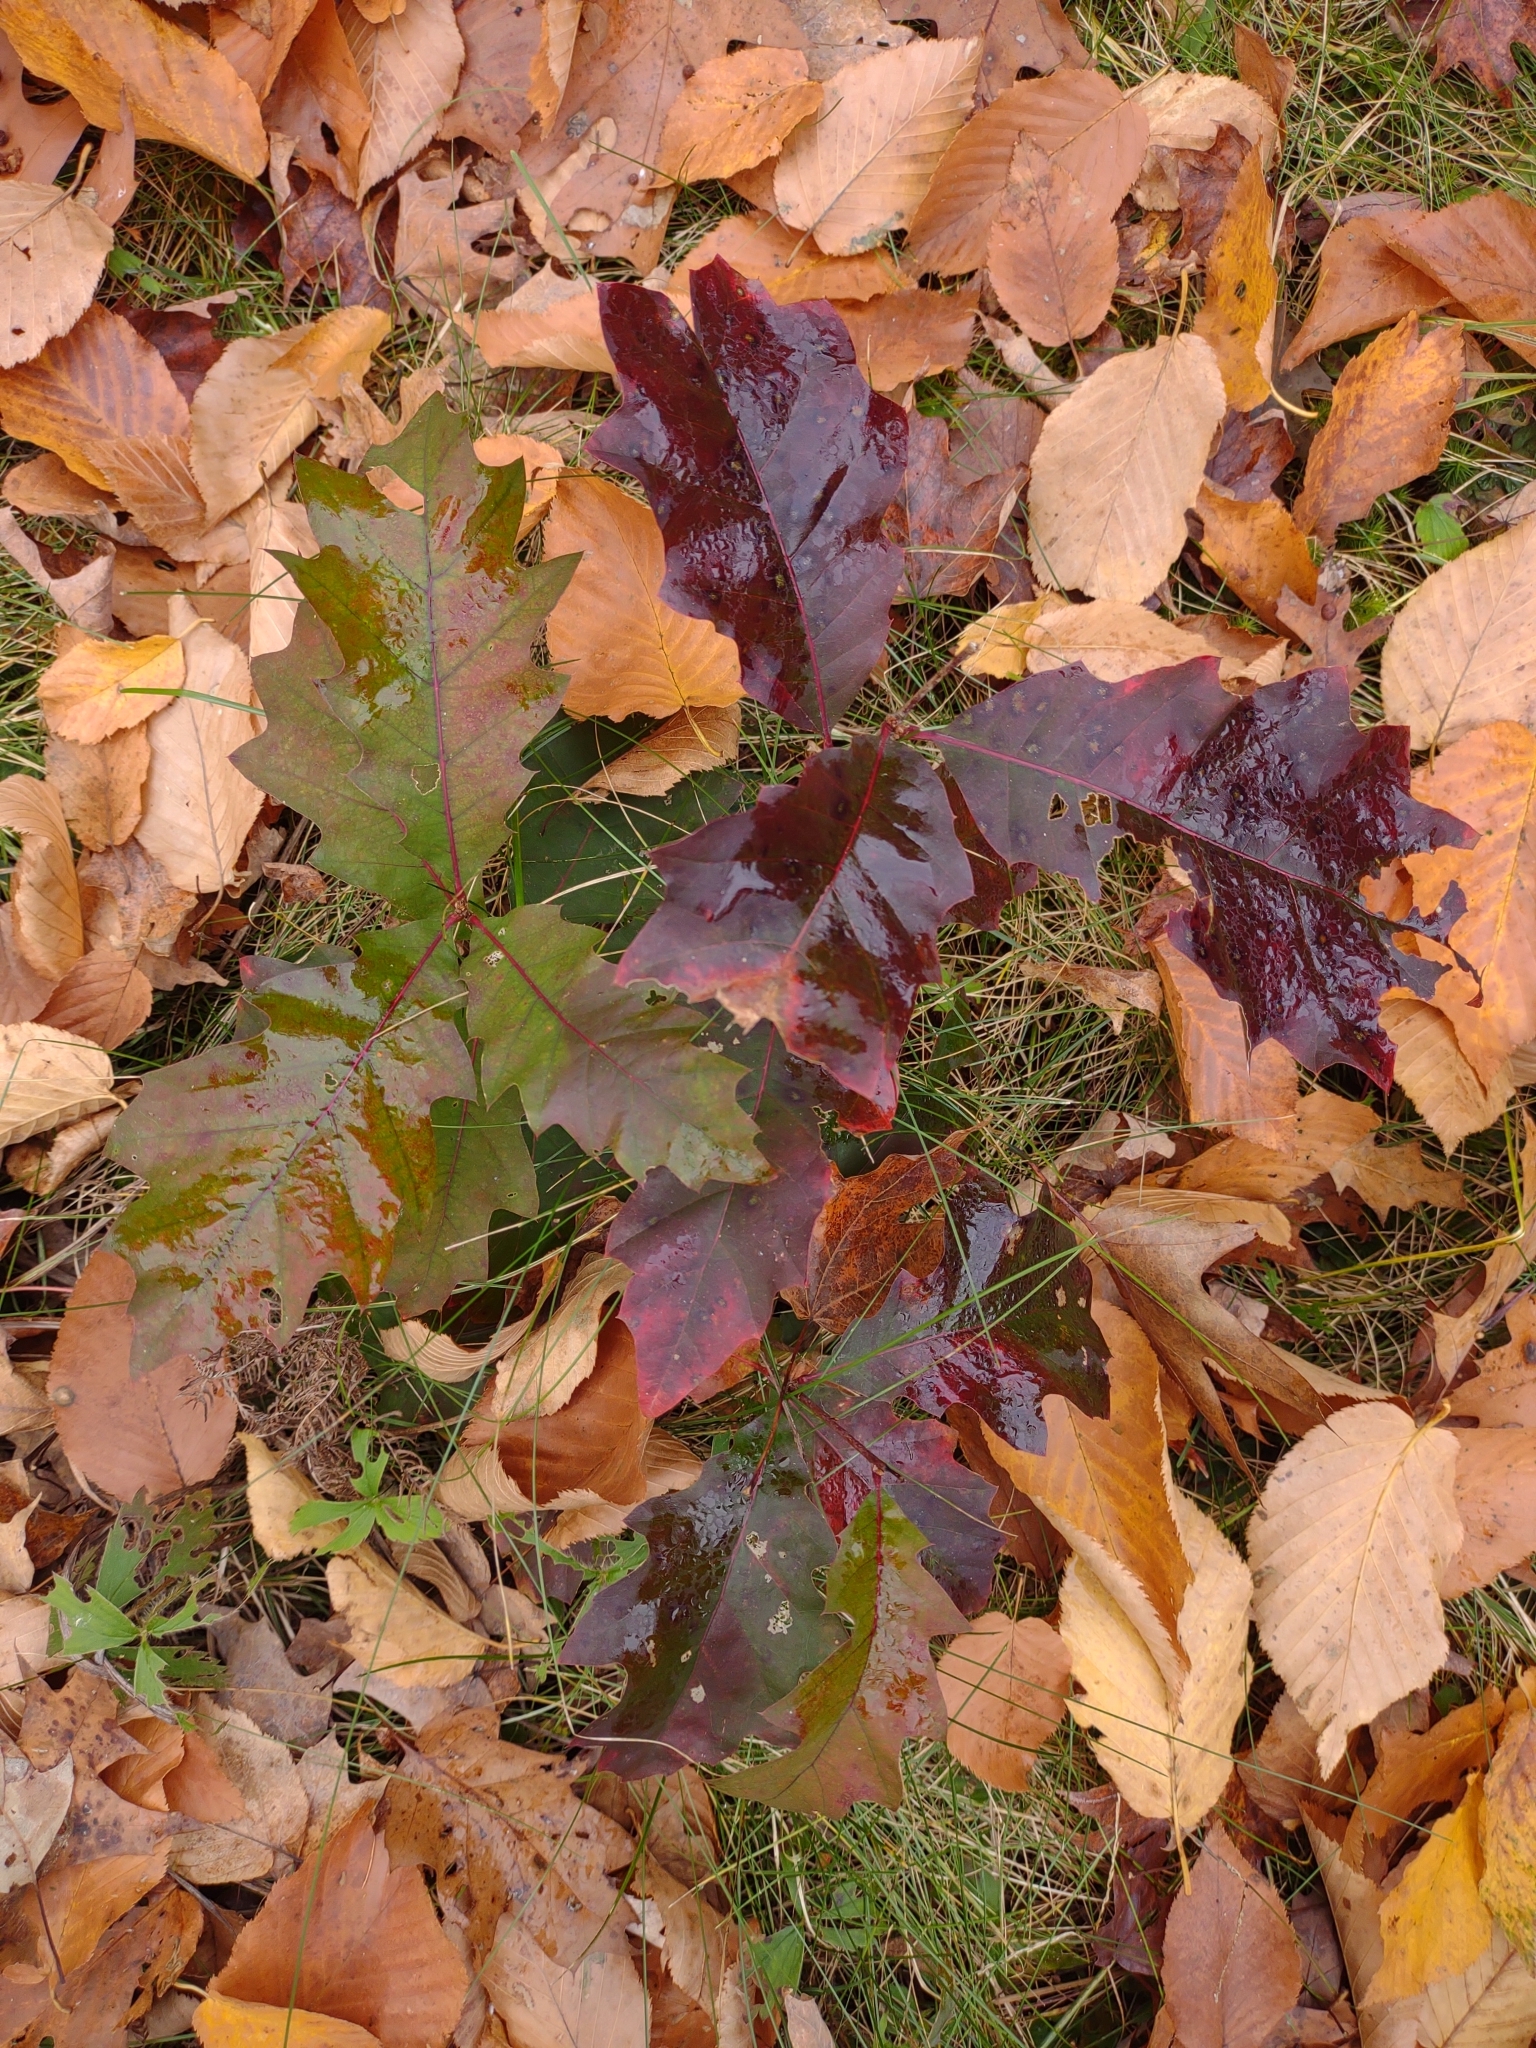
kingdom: Plantae
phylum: Tracheophyta
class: Magnoliopsida
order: Fagales
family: Fagaceae
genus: Quercus
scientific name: Quercus rubra
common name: Red oak
